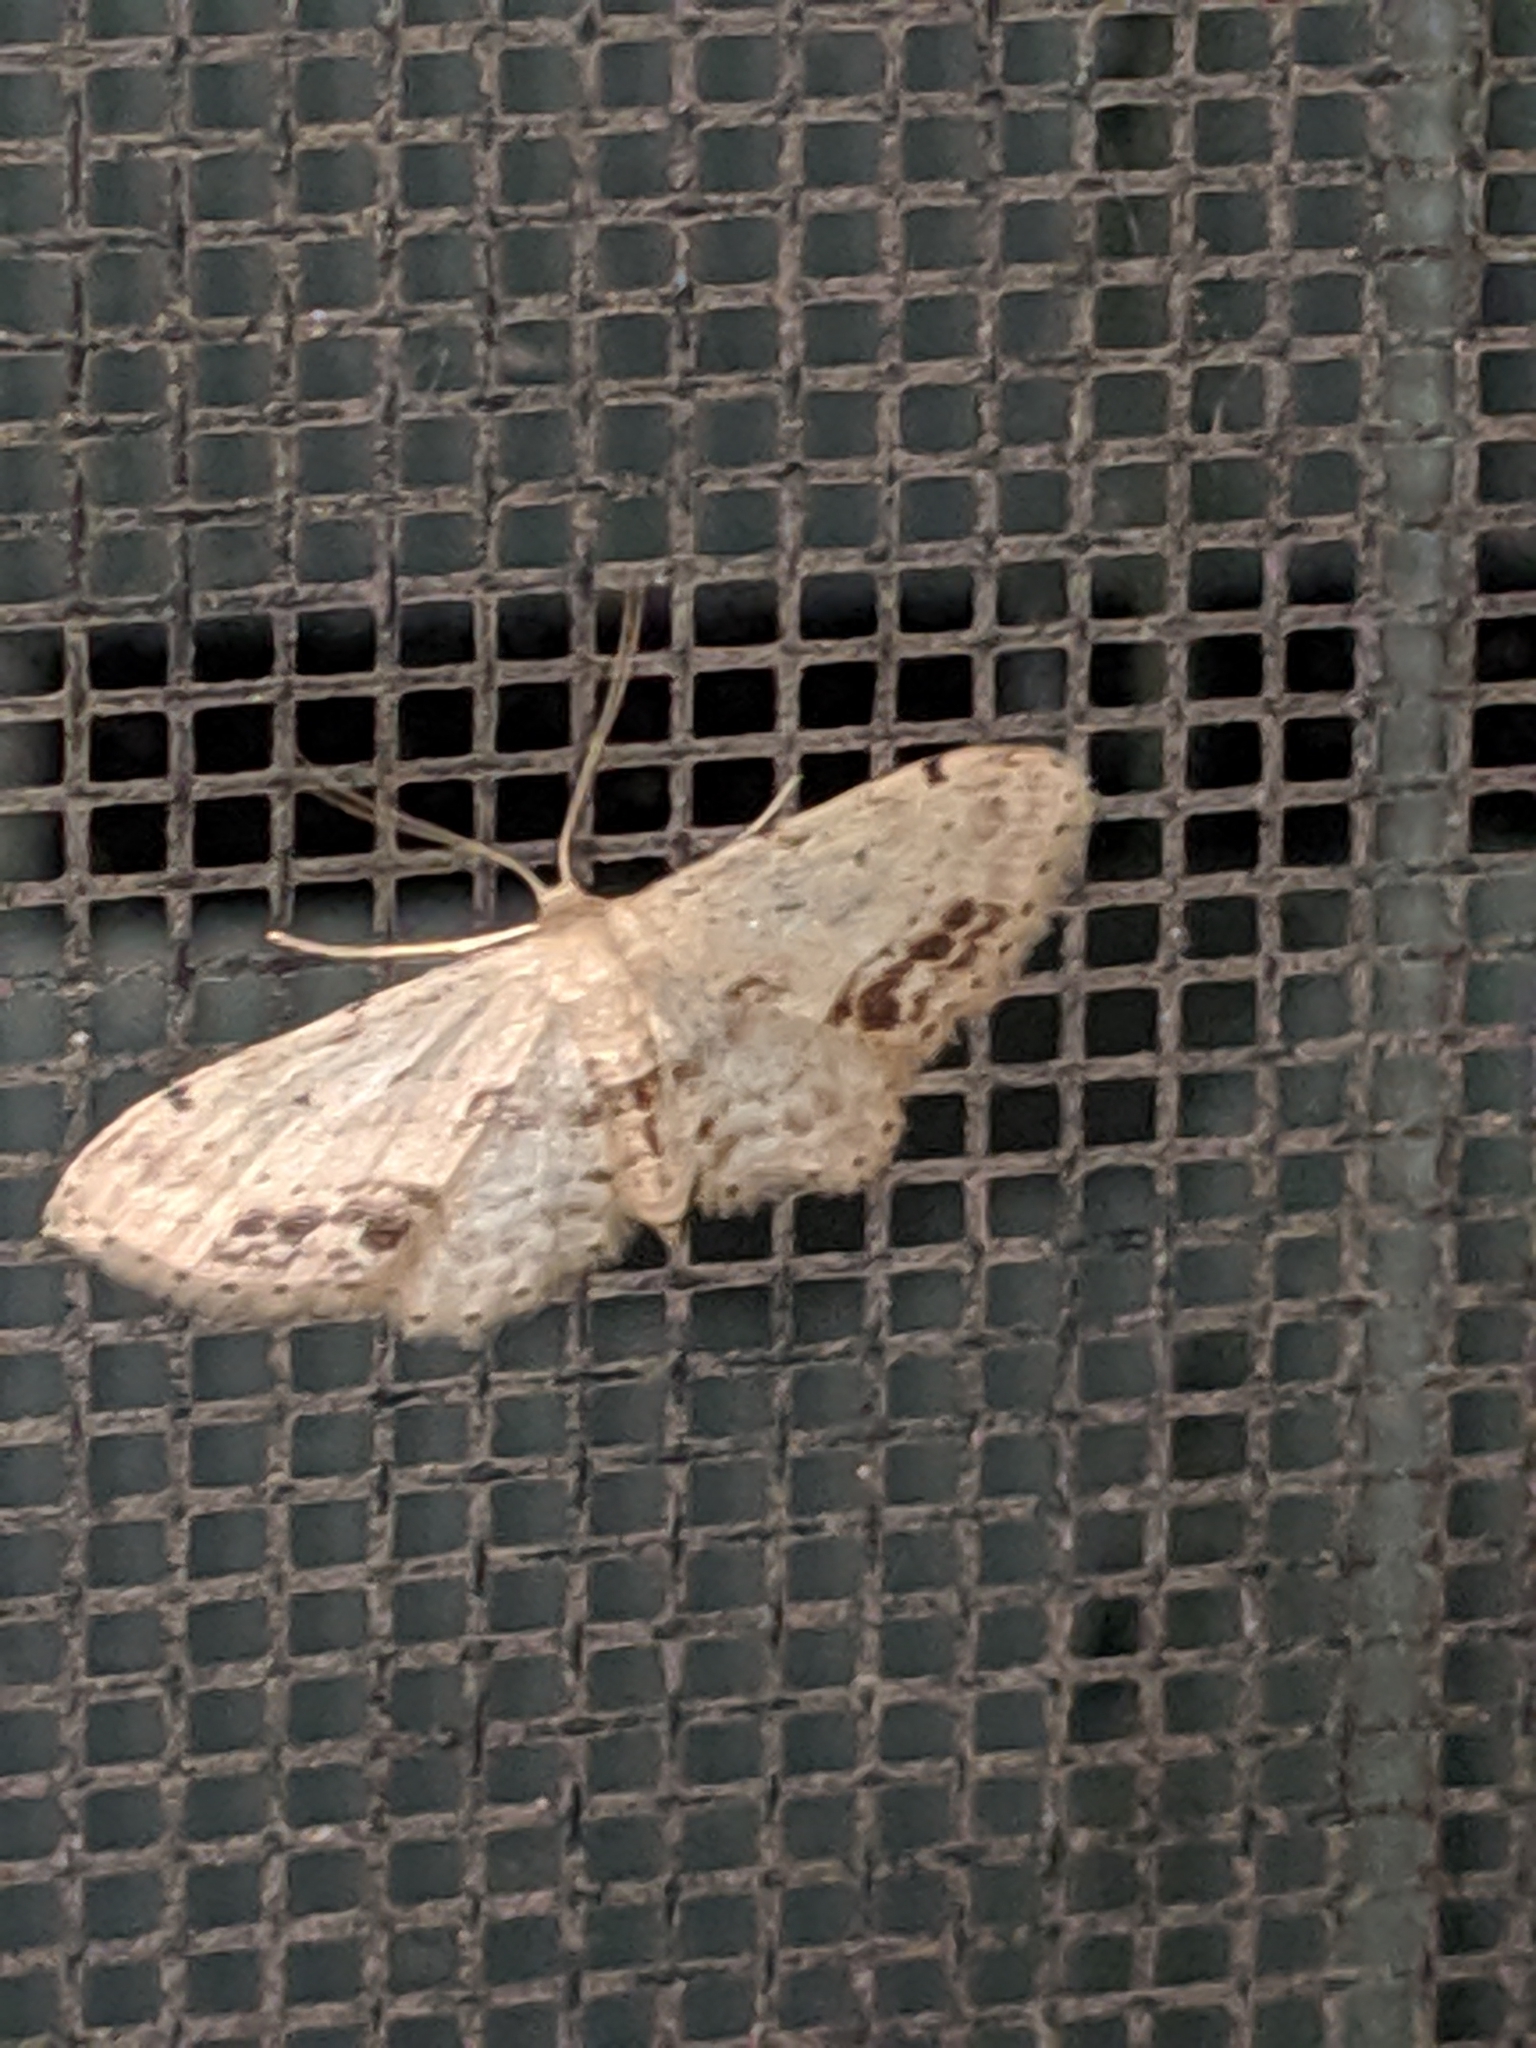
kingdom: Animalia
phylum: Arthropoda
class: Insecta
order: Lepidoptera
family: Geometridae
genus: Idaea
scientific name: Idaea dimidiata
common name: Single-dotted wave
